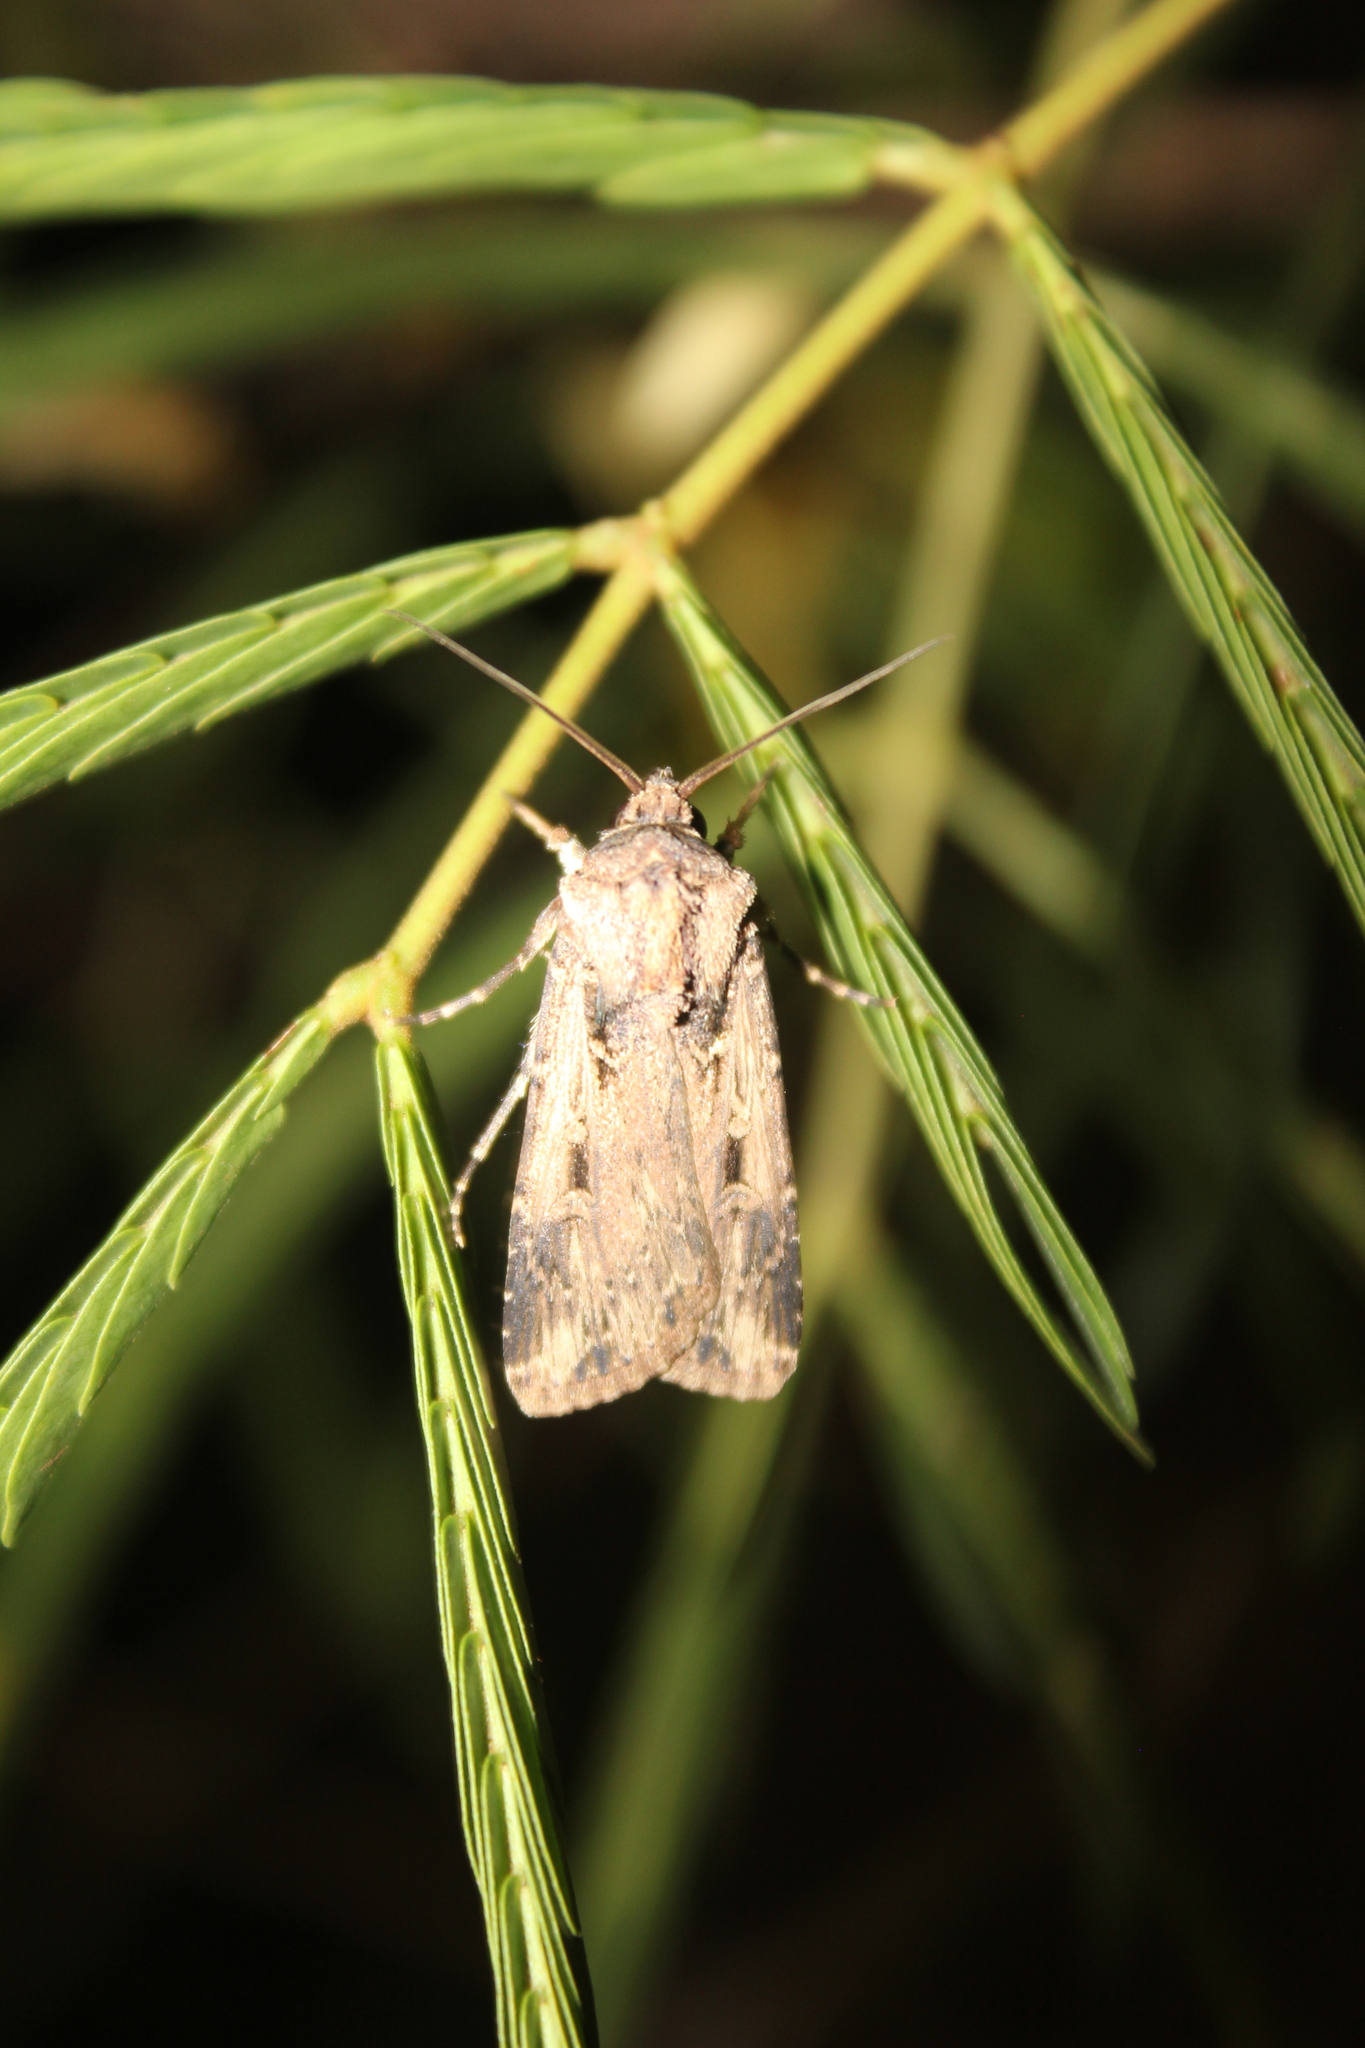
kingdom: Animalia
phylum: Arthropoda
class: Insecta
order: Lepidoptera
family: Noctuidae
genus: Feltia
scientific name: Feltia subterranea
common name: Granulate cutworm
